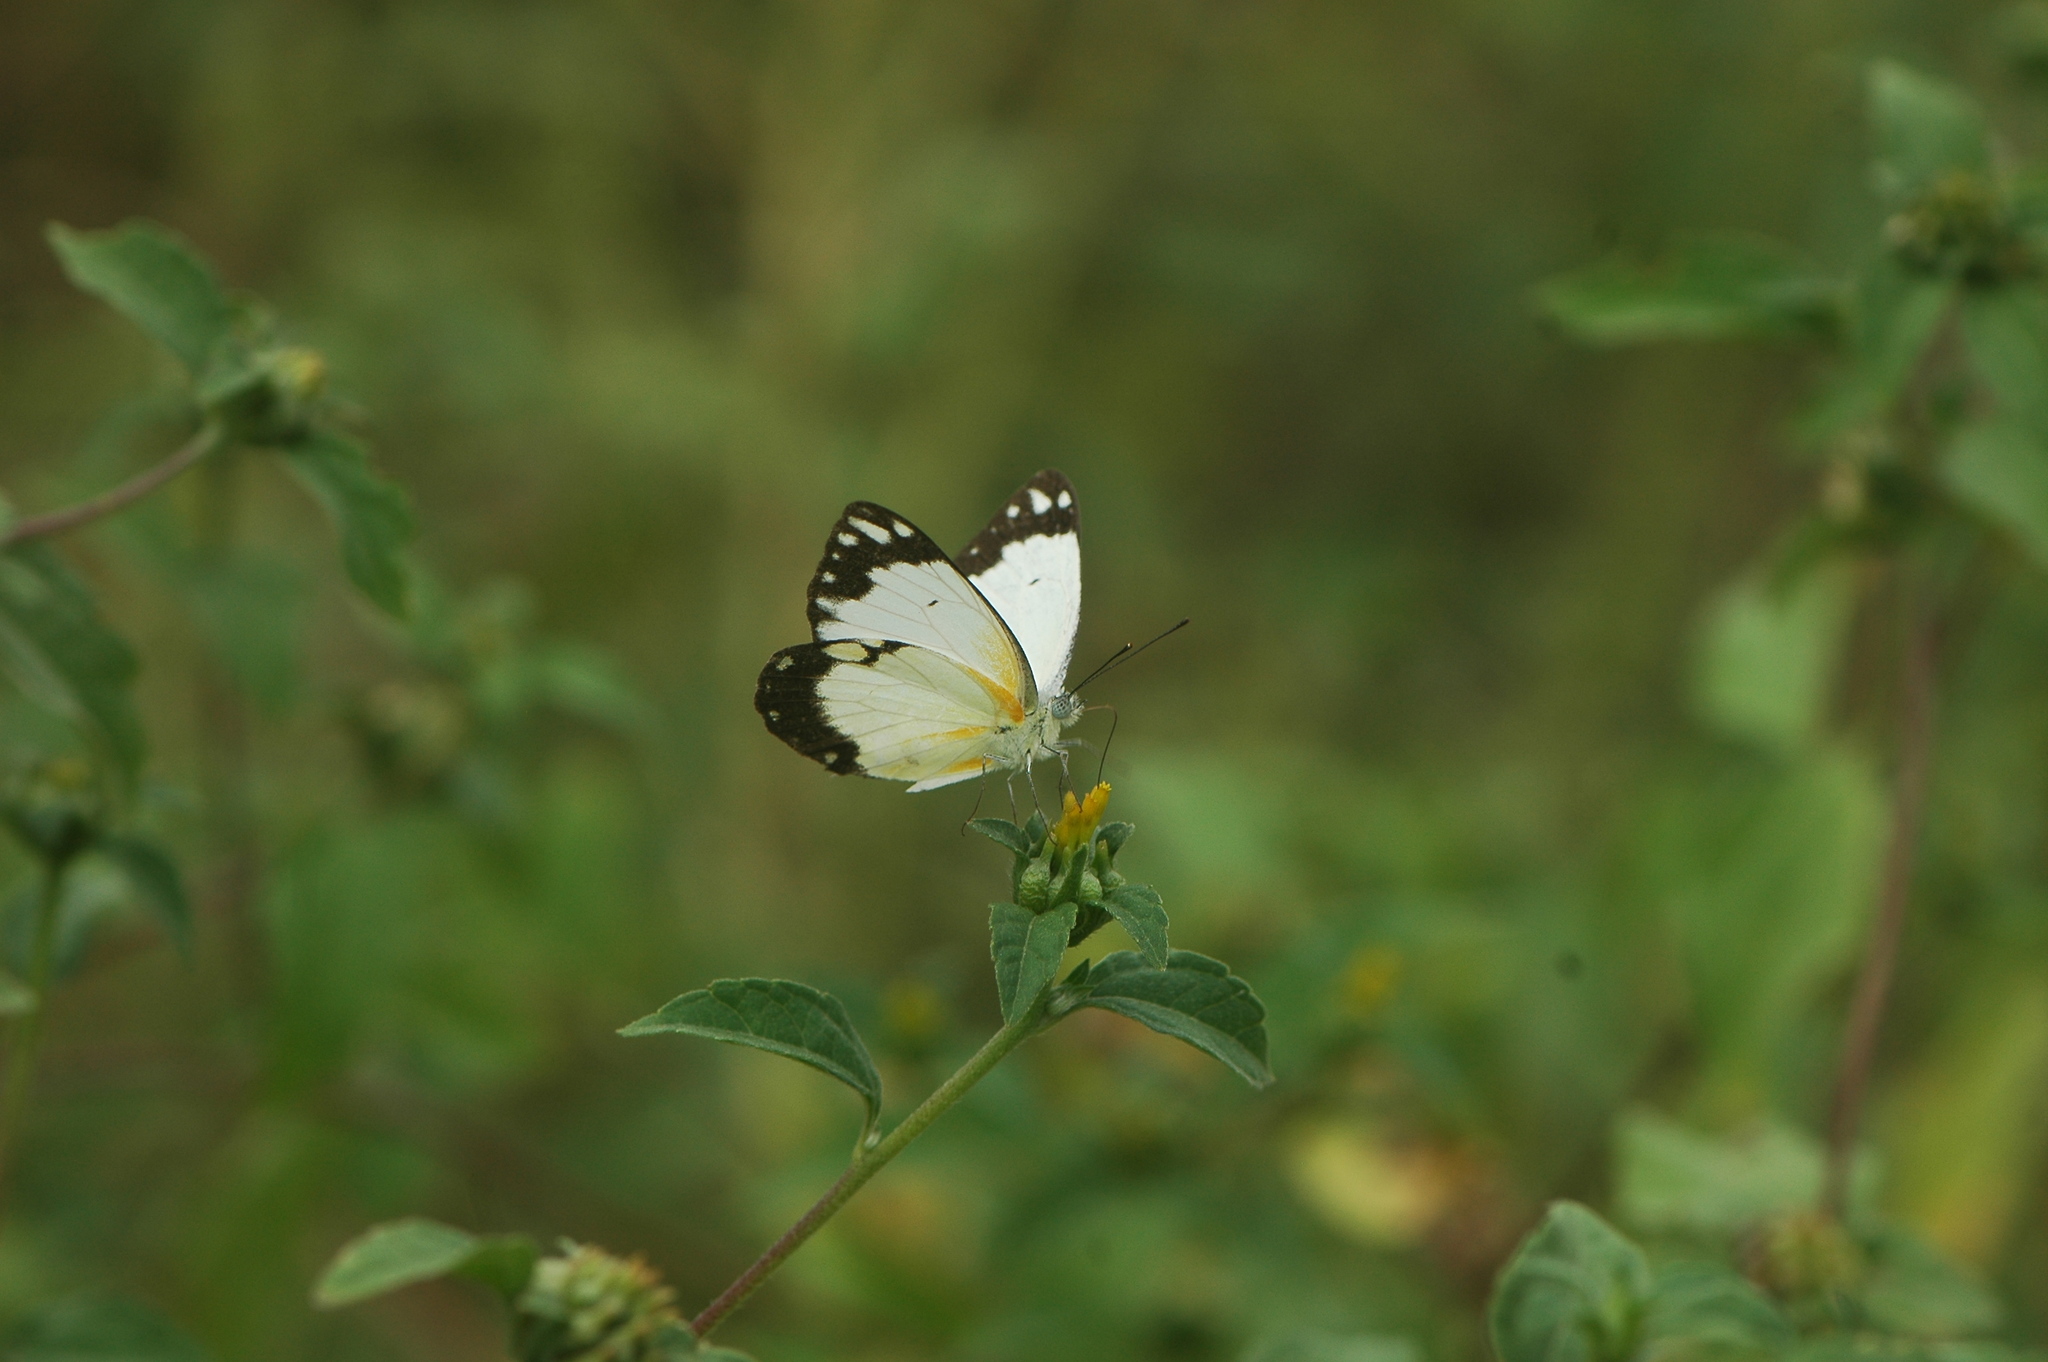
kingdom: Animalia
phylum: Arthropoda
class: Insecta
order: Lepidoptera
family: Pieridae
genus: Belenois
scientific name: Belenois creona
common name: African caper white
